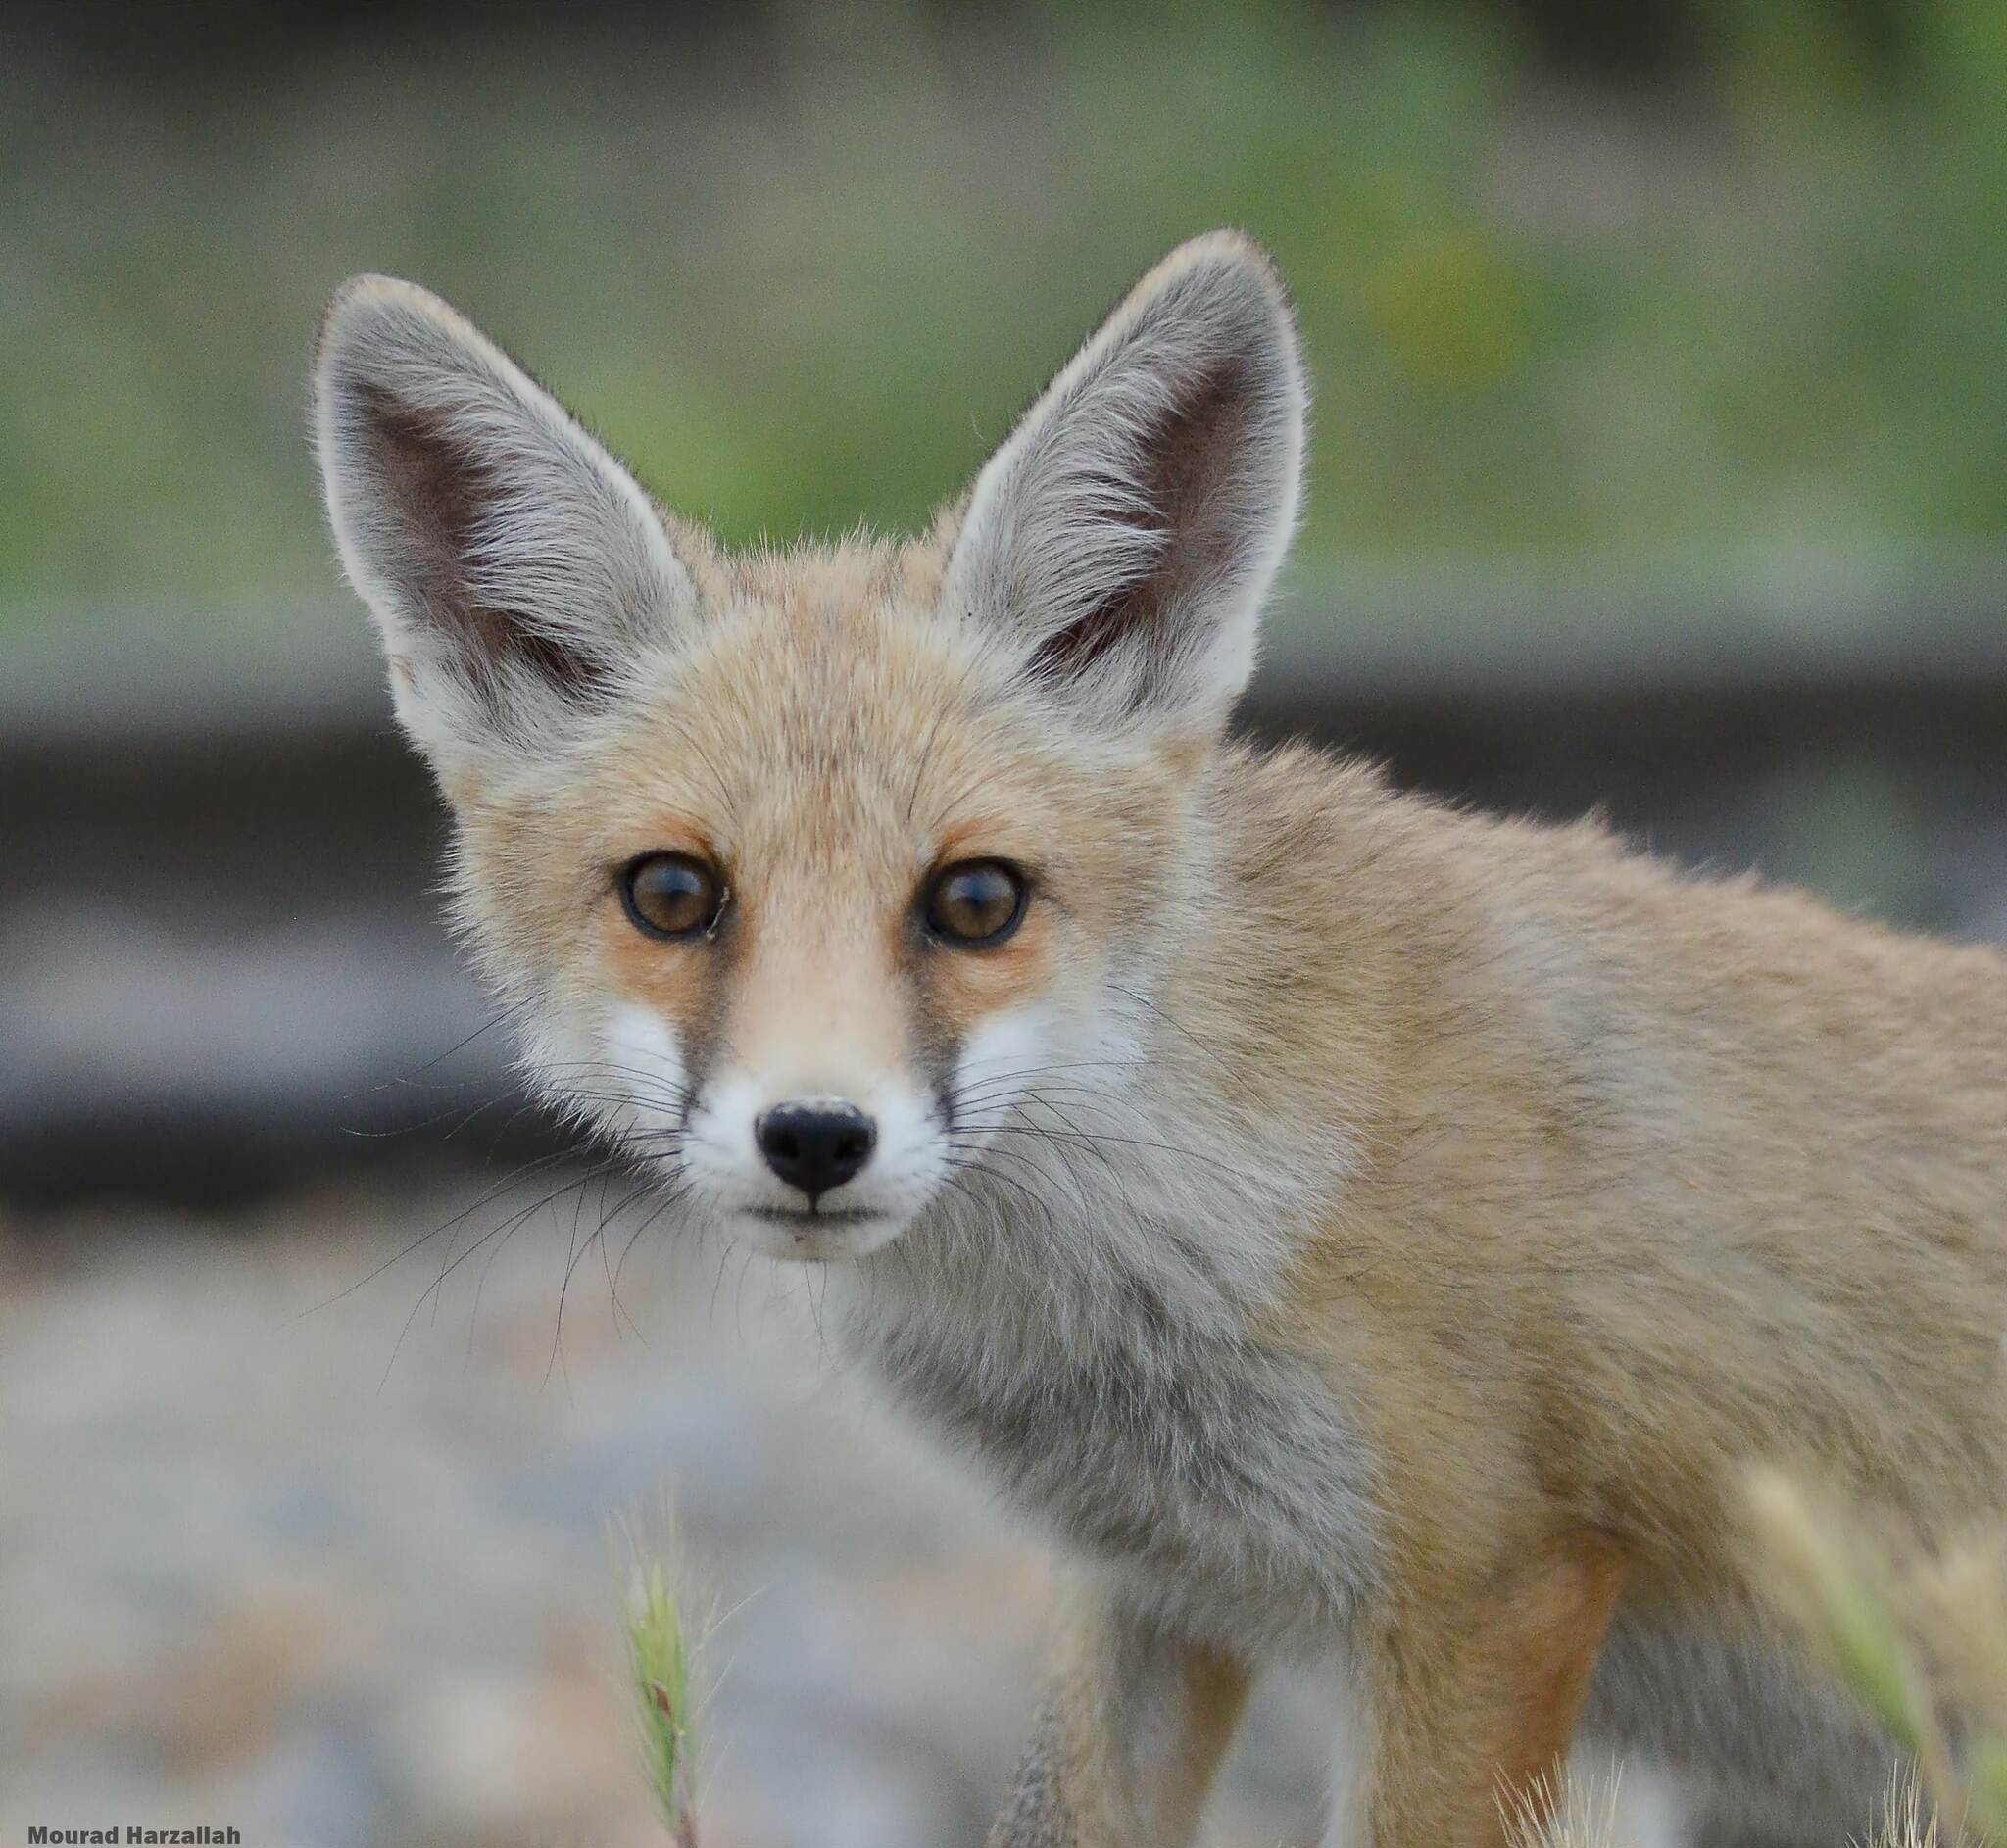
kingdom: Animalia
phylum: Chordata
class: Mammalia
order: Carnivora
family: Canidae
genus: Vulpes
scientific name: Vulpes vulpes
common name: Red fox
